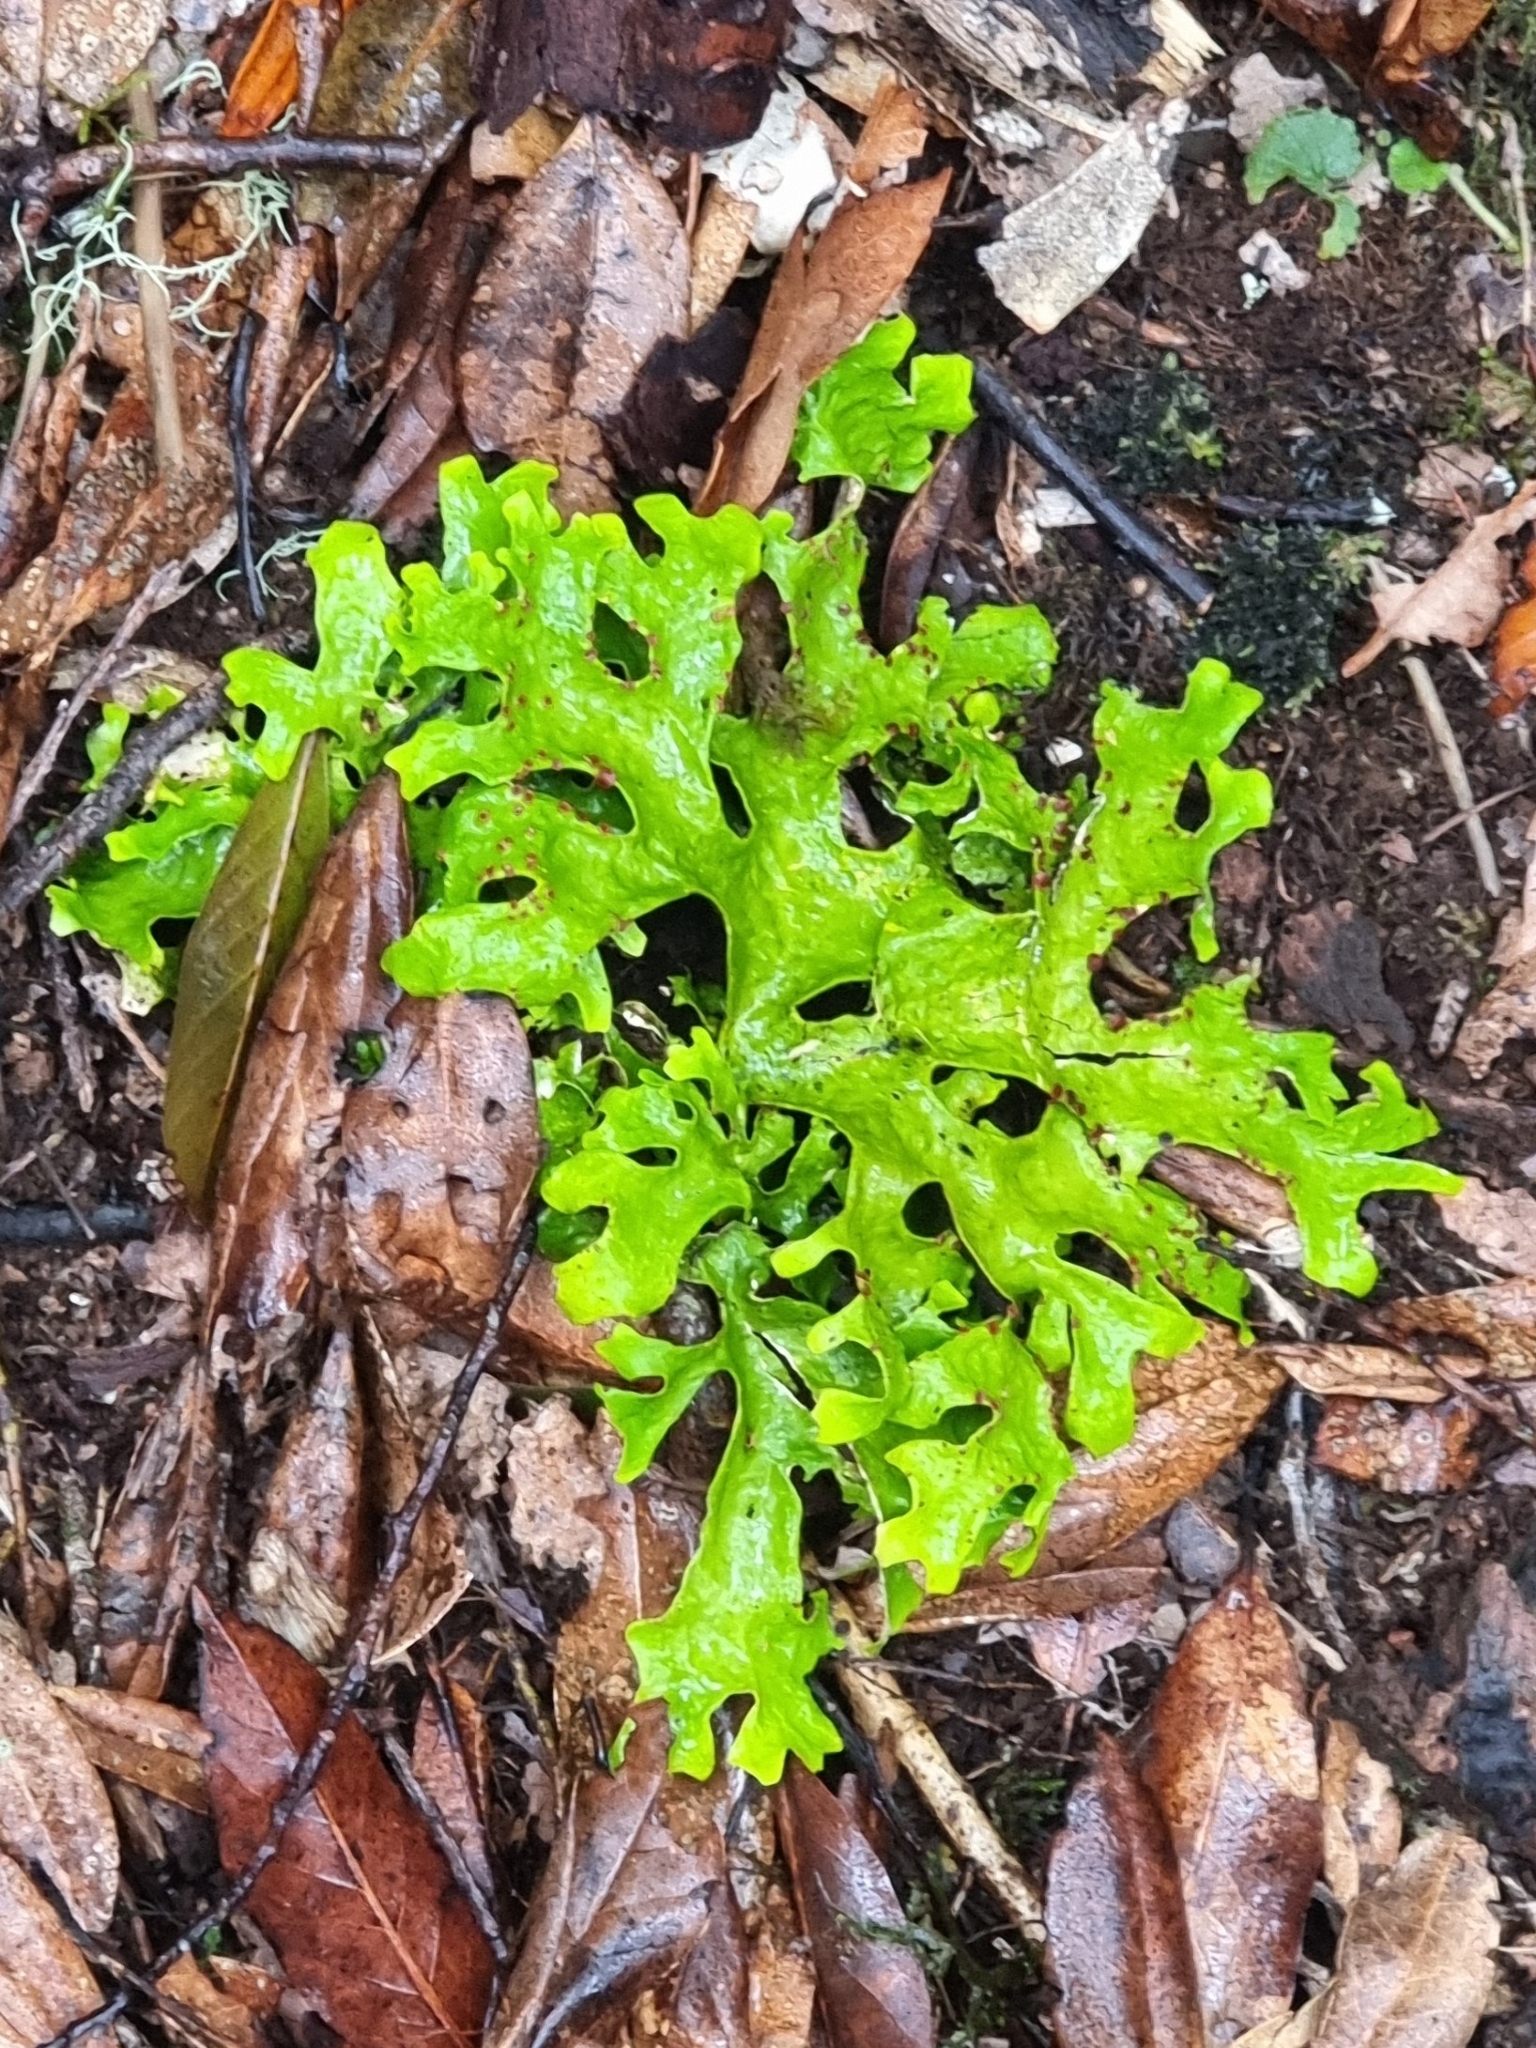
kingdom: Fungi
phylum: Ascomycota
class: Lecanoromycetes
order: Peltigerales
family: Lobariaceae
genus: Sticta
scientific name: Sticta canariensis
